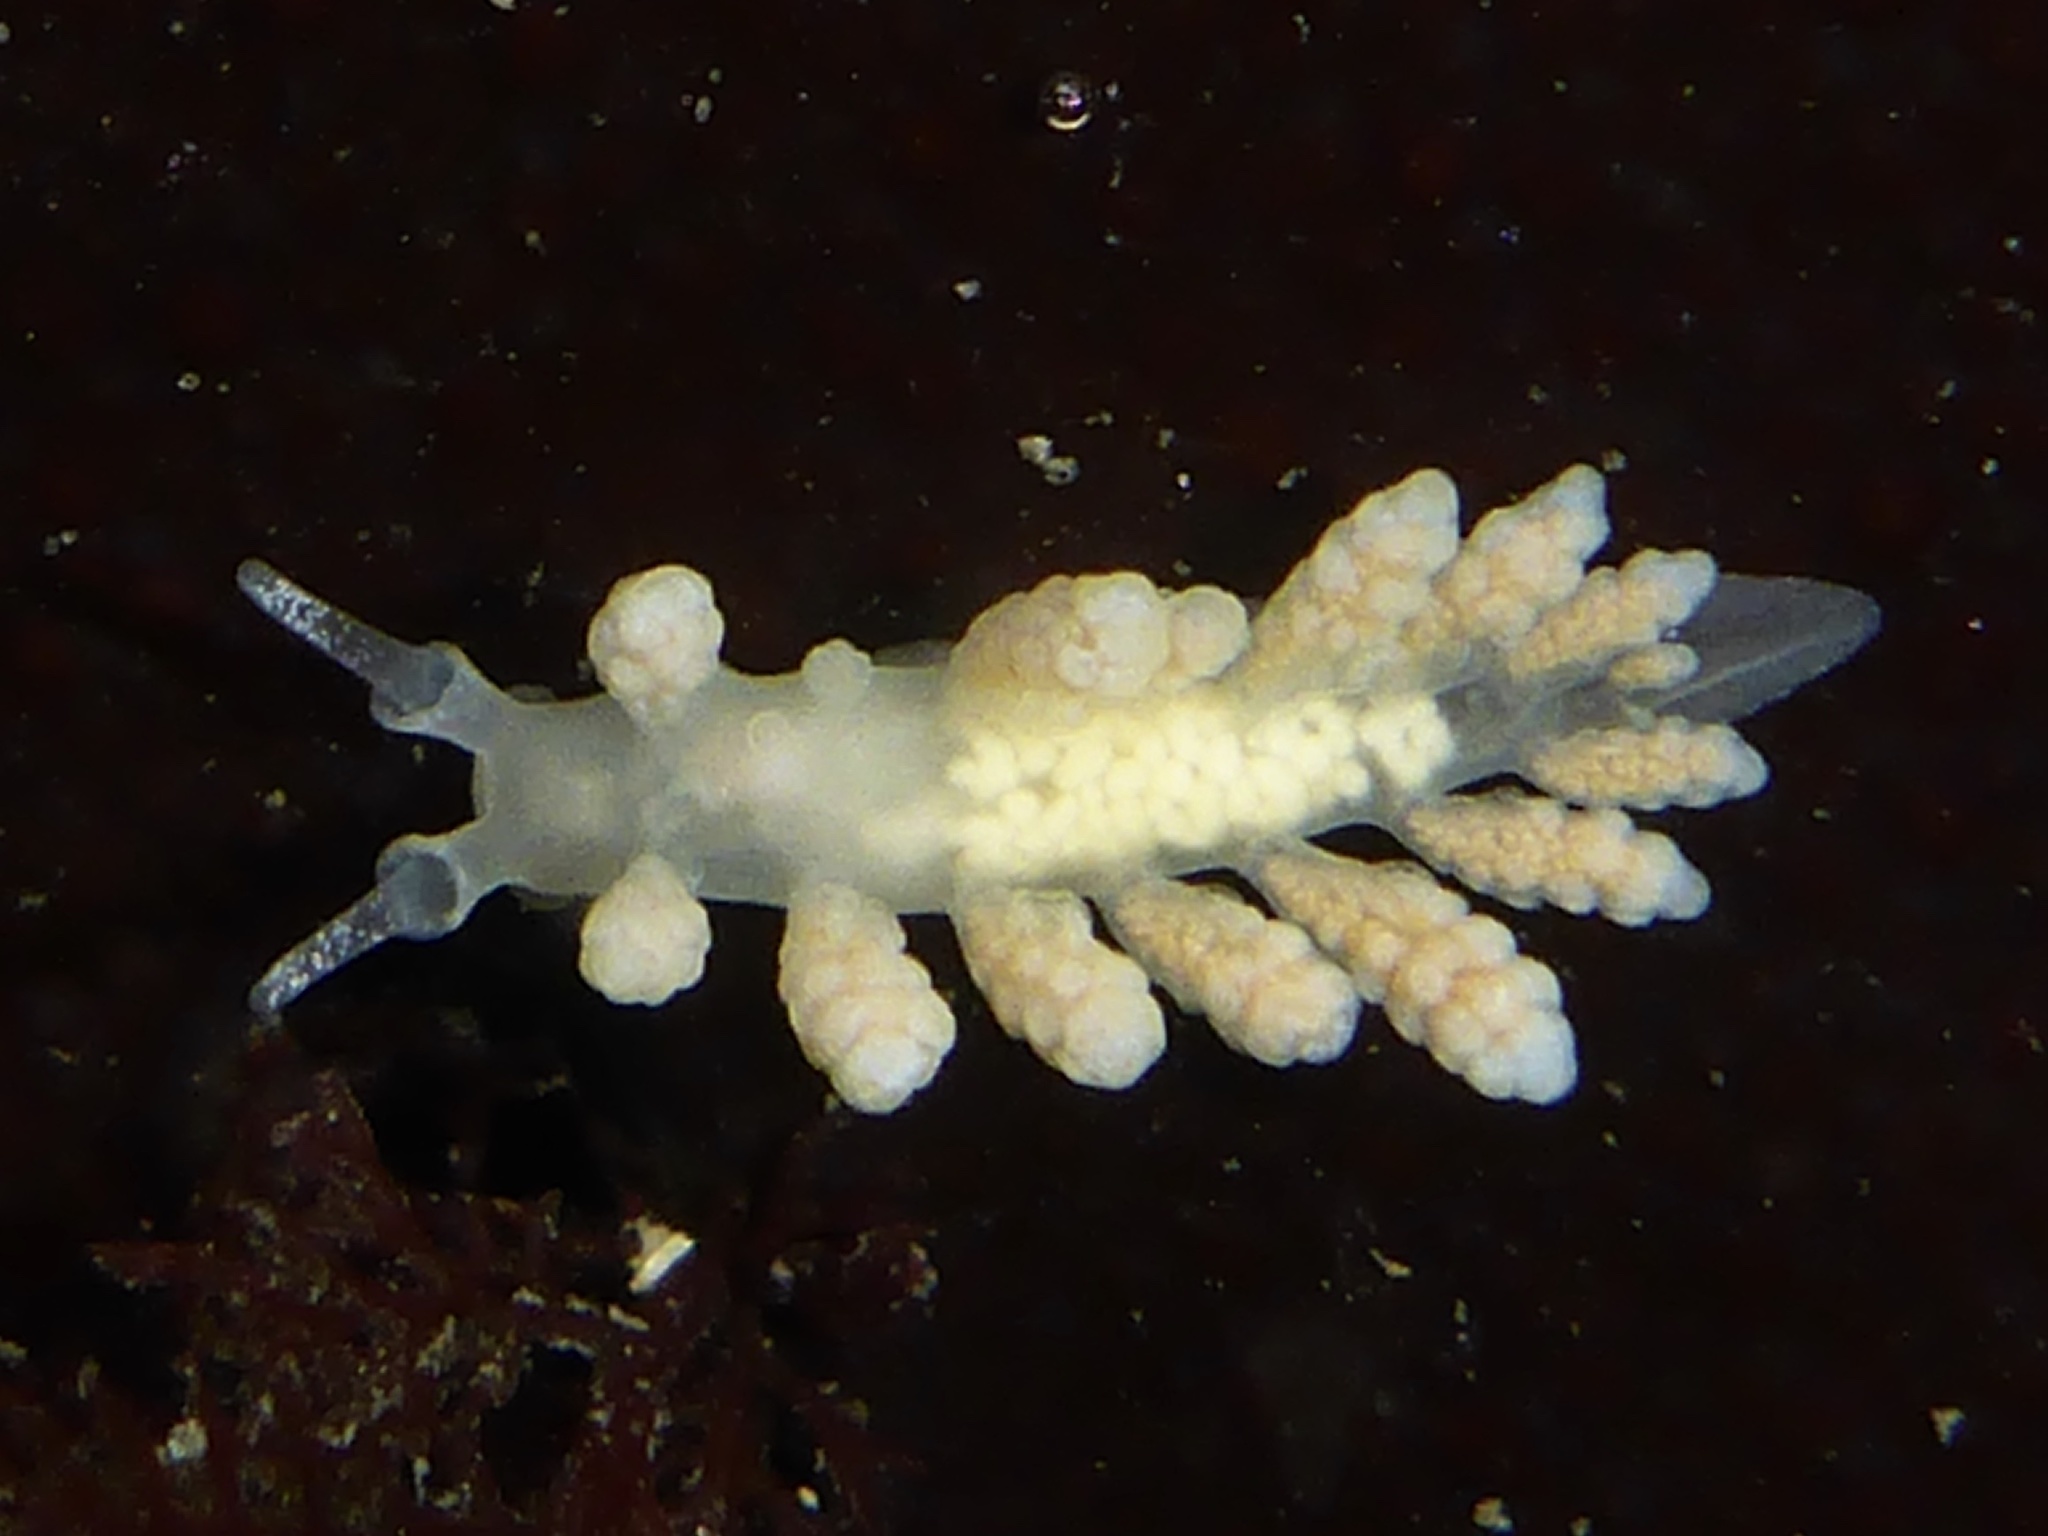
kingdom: Animalia
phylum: Mollusca
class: Gastropoda
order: Nudibranchia
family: Dotidae
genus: Doto
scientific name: Doto amyra
